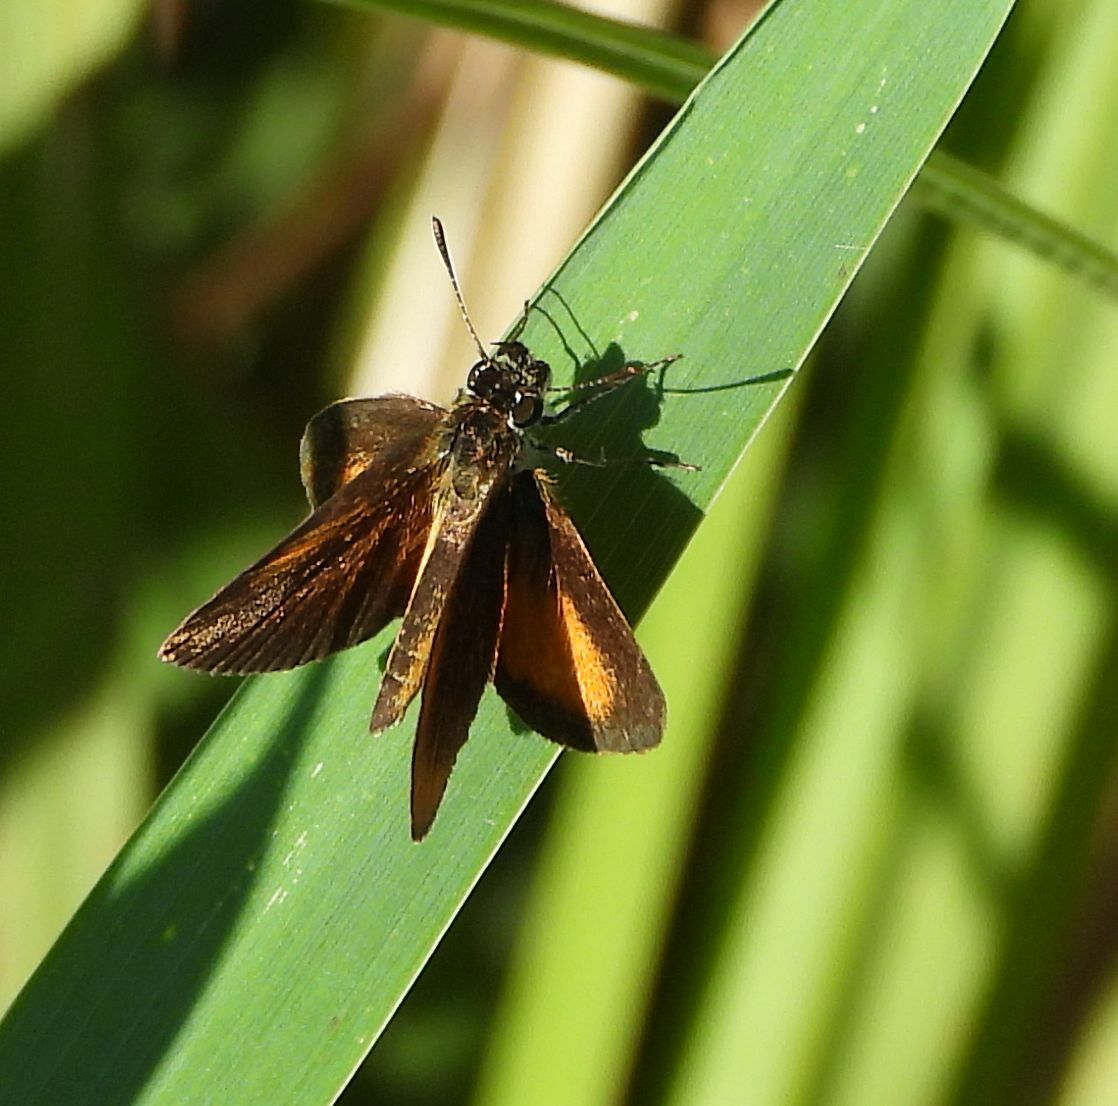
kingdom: Animalia
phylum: Arthropoda
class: Insecta
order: Lepidoptera
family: Hesperiidae
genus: Ancyloxypha
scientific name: Ancyloxypha numitor
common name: Least skipper
